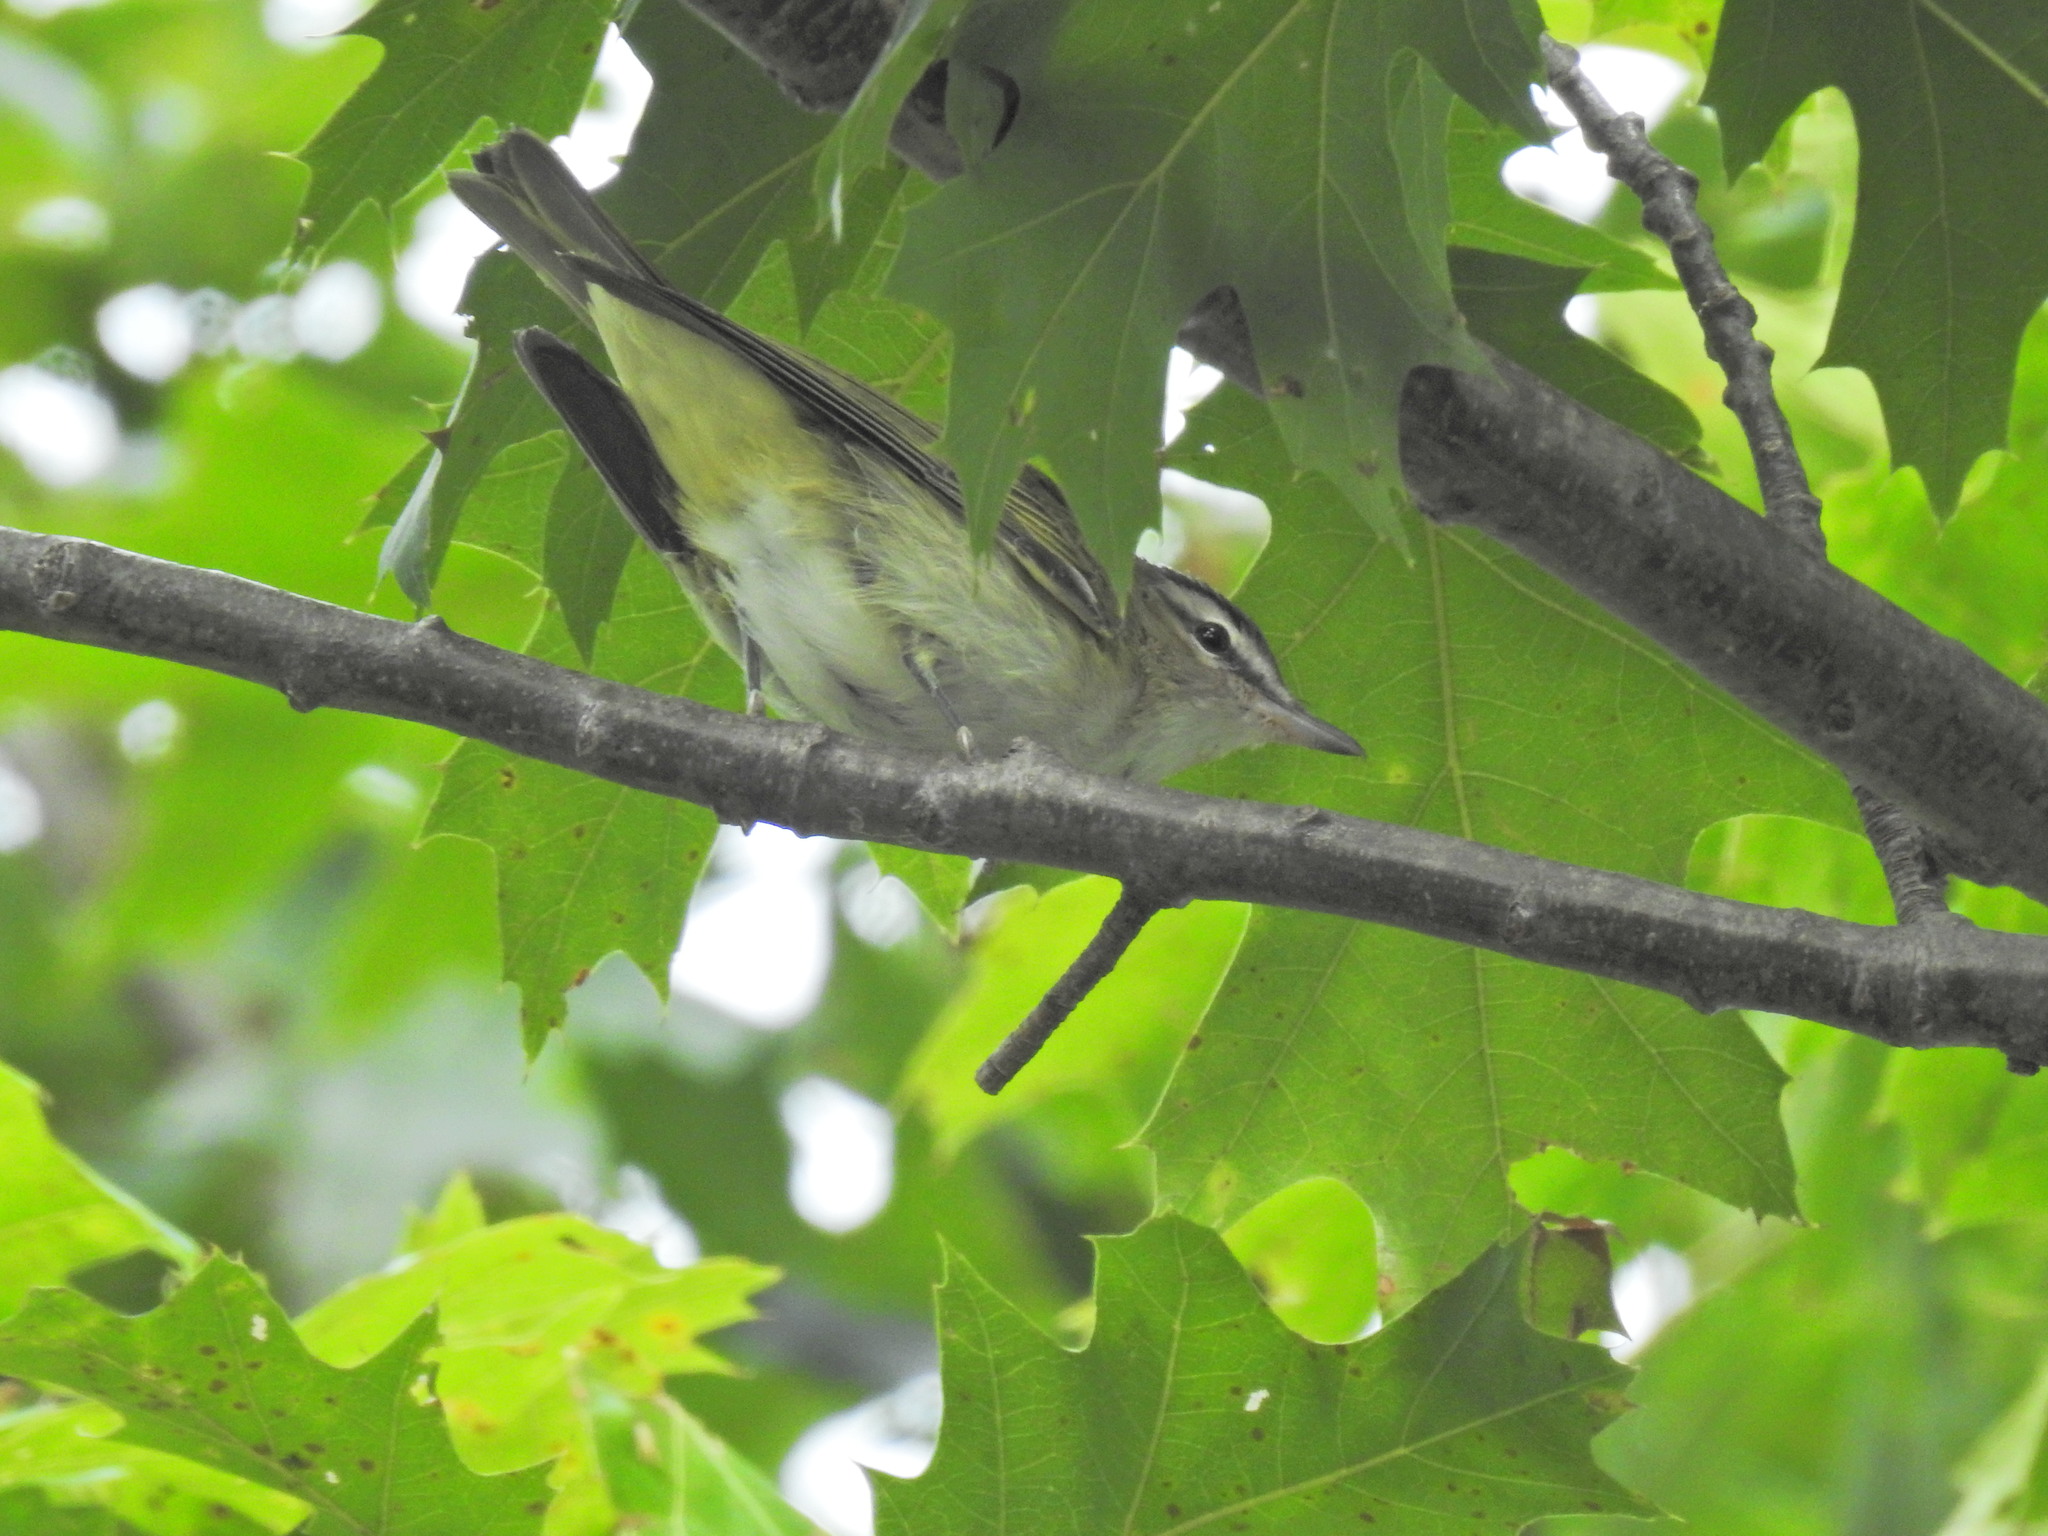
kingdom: Animalia
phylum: Chordata
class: Aves
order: Passeriformes
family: Vireonidae
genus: Vireo
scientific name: Vireo olivaceus
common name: Red-eyed vireo
